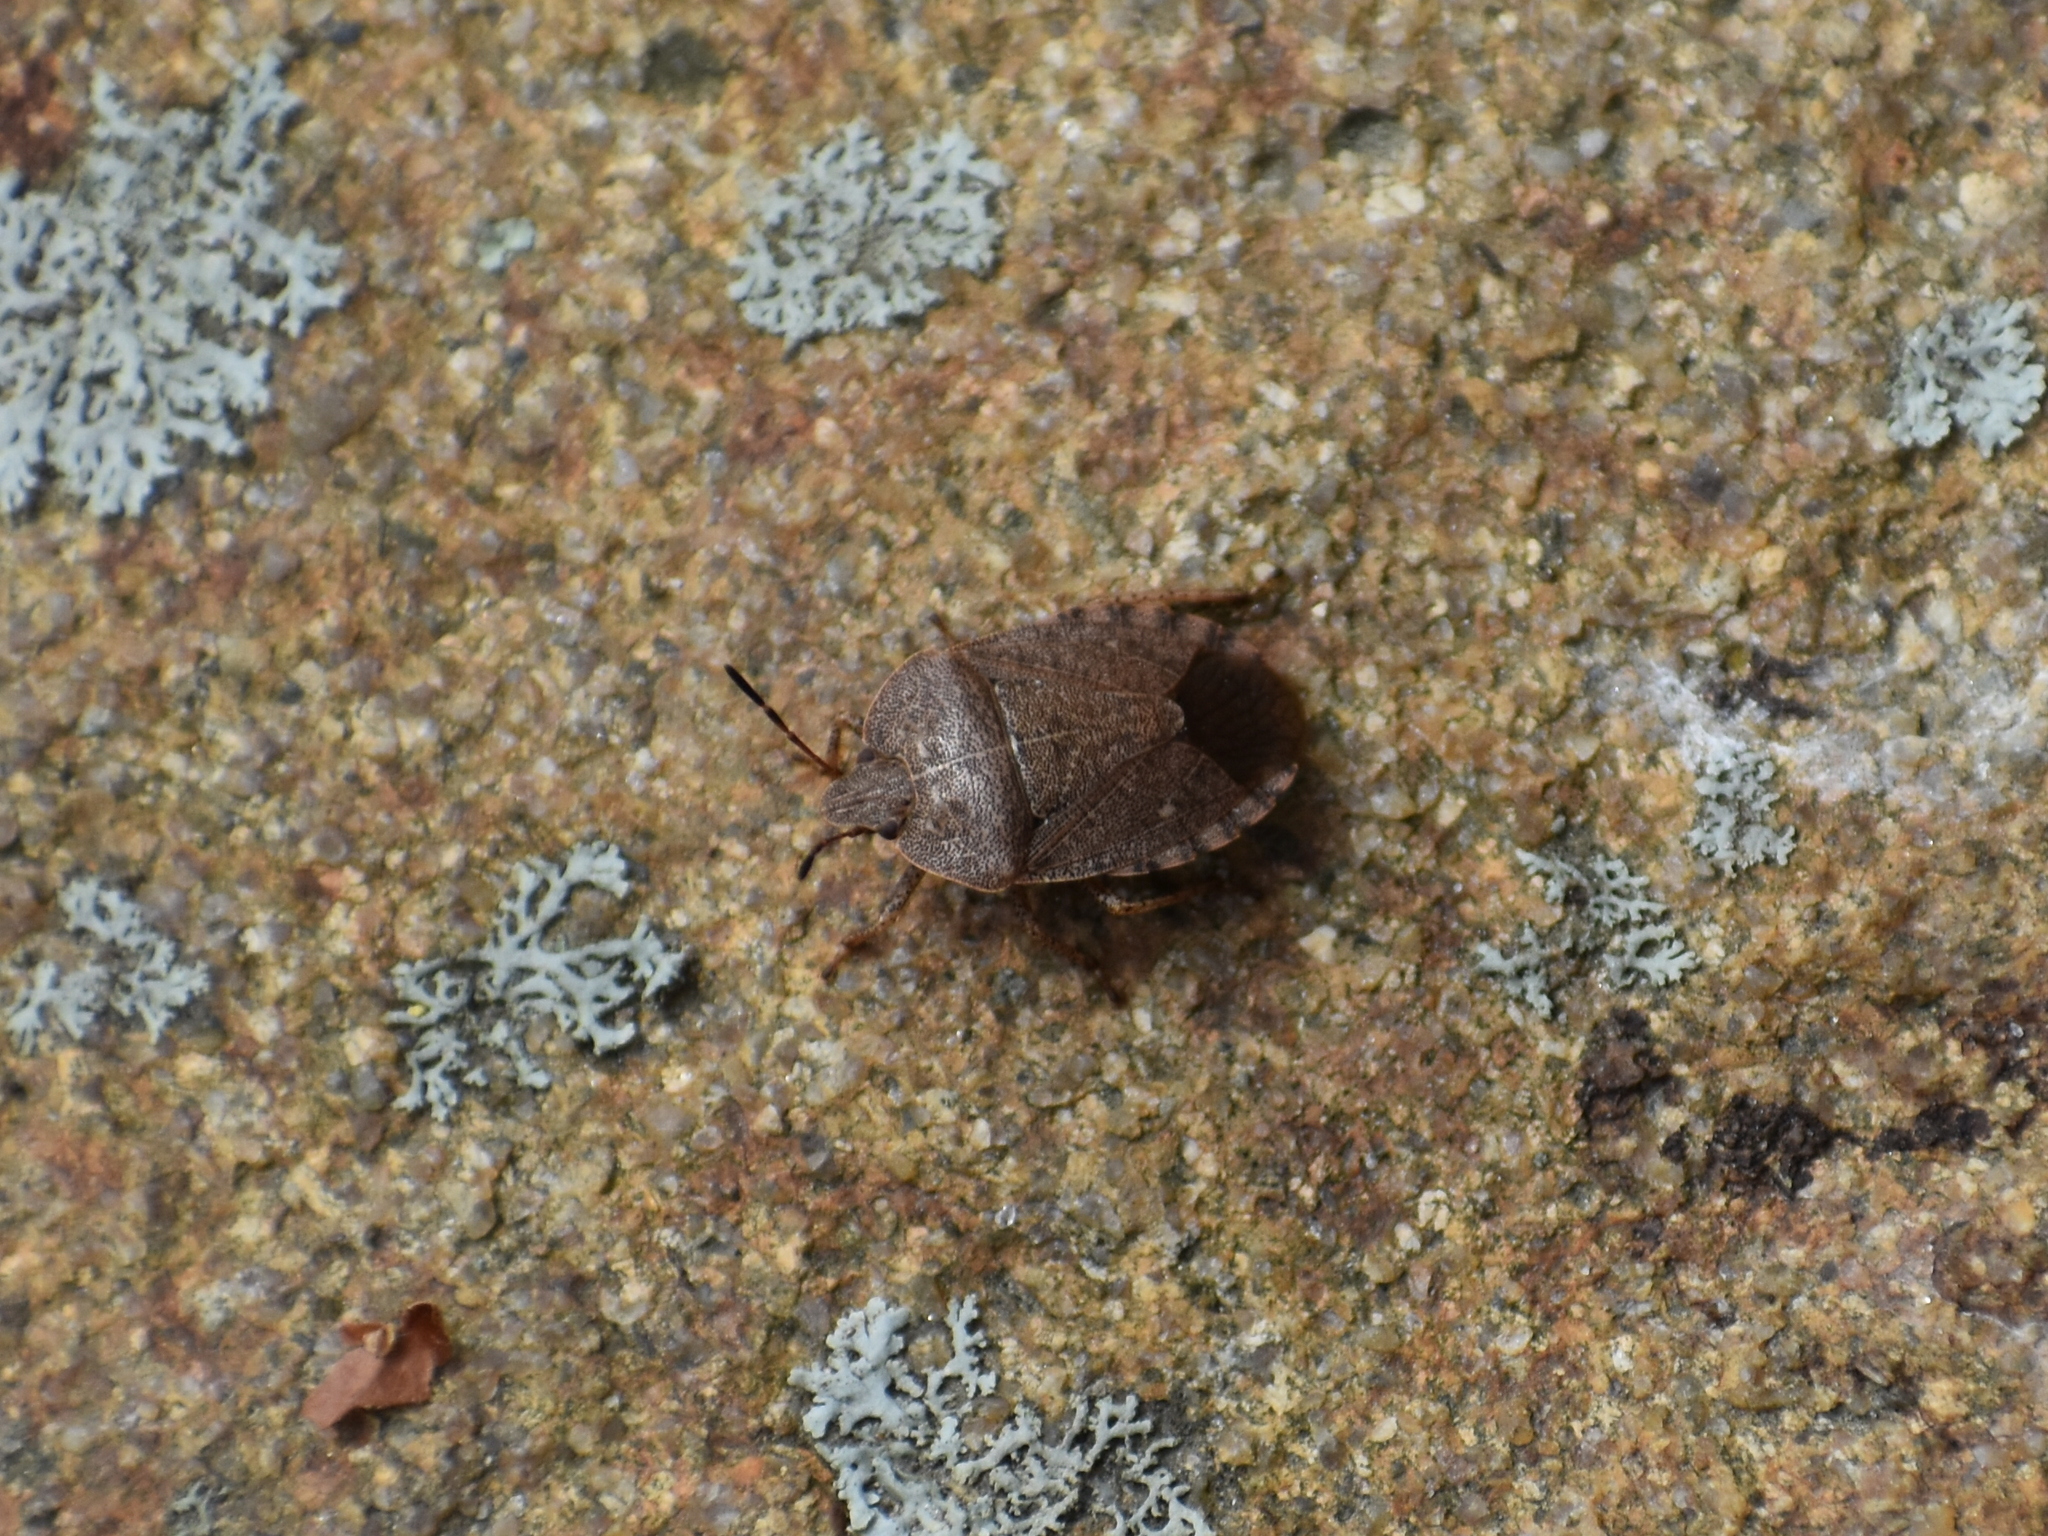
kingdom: Animalia
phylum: Arthropoda
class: Insecta
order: Hemiptera
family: Pentatomidae
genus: Menecles
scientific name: Menecles insertus
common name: Elf shoe stink bug
